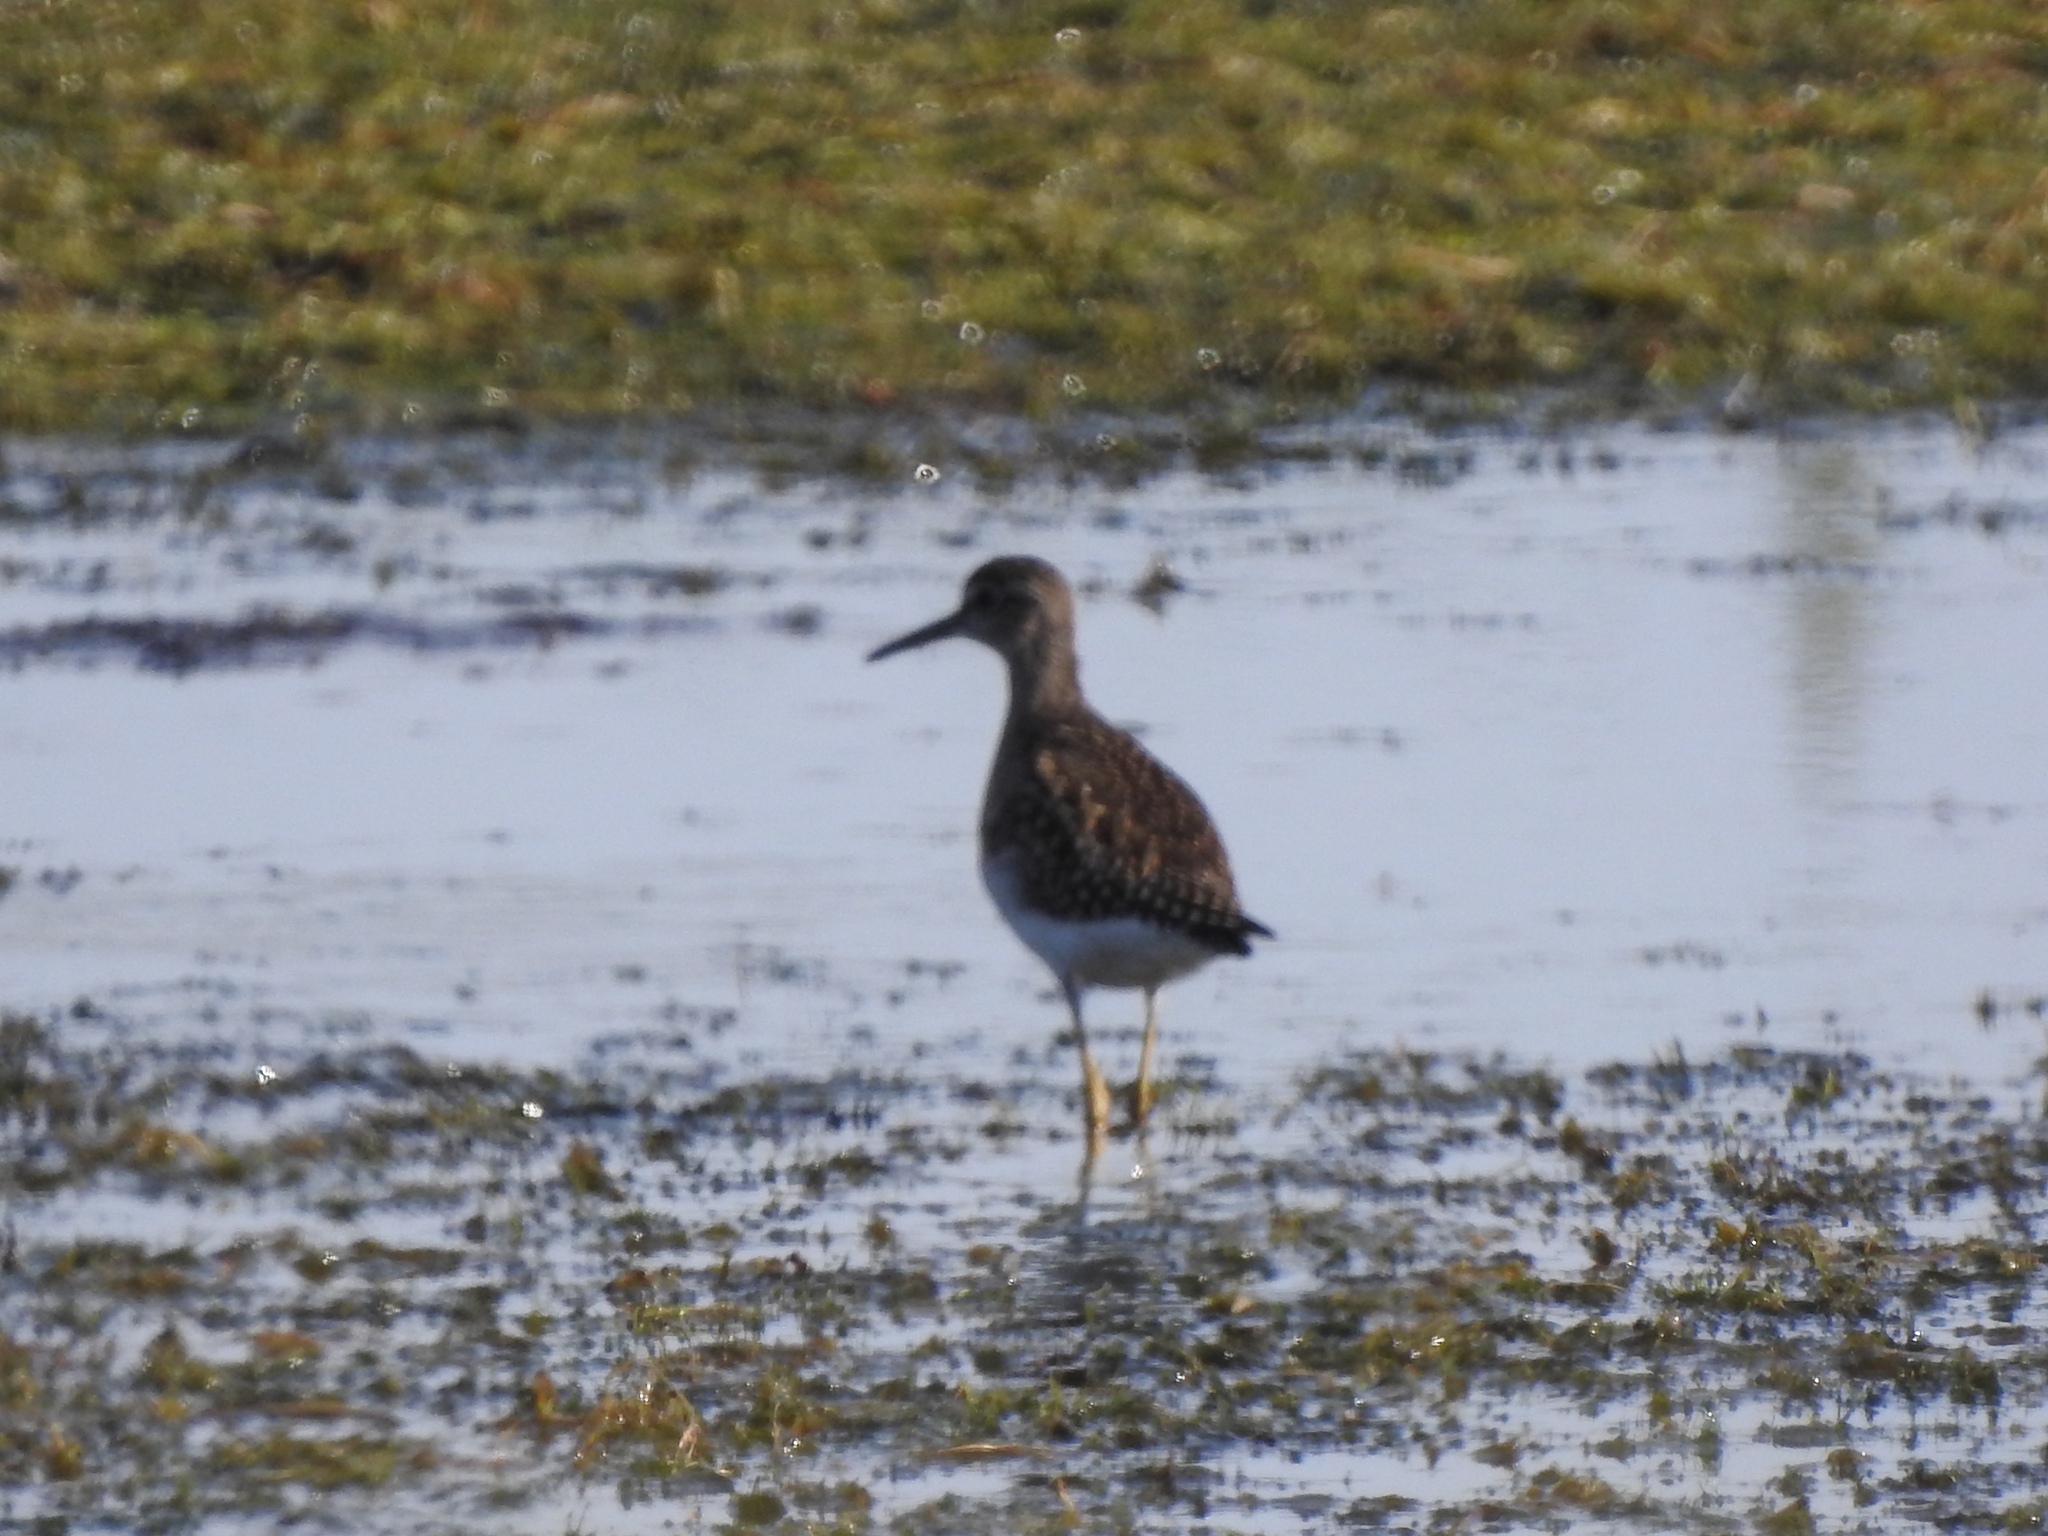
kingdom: Animalia
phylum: Chordata
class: Aves
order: Charadriiformes
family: Scolopacidae
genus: Tringa
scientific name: Tringa glareola
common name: Wood sandpiper
